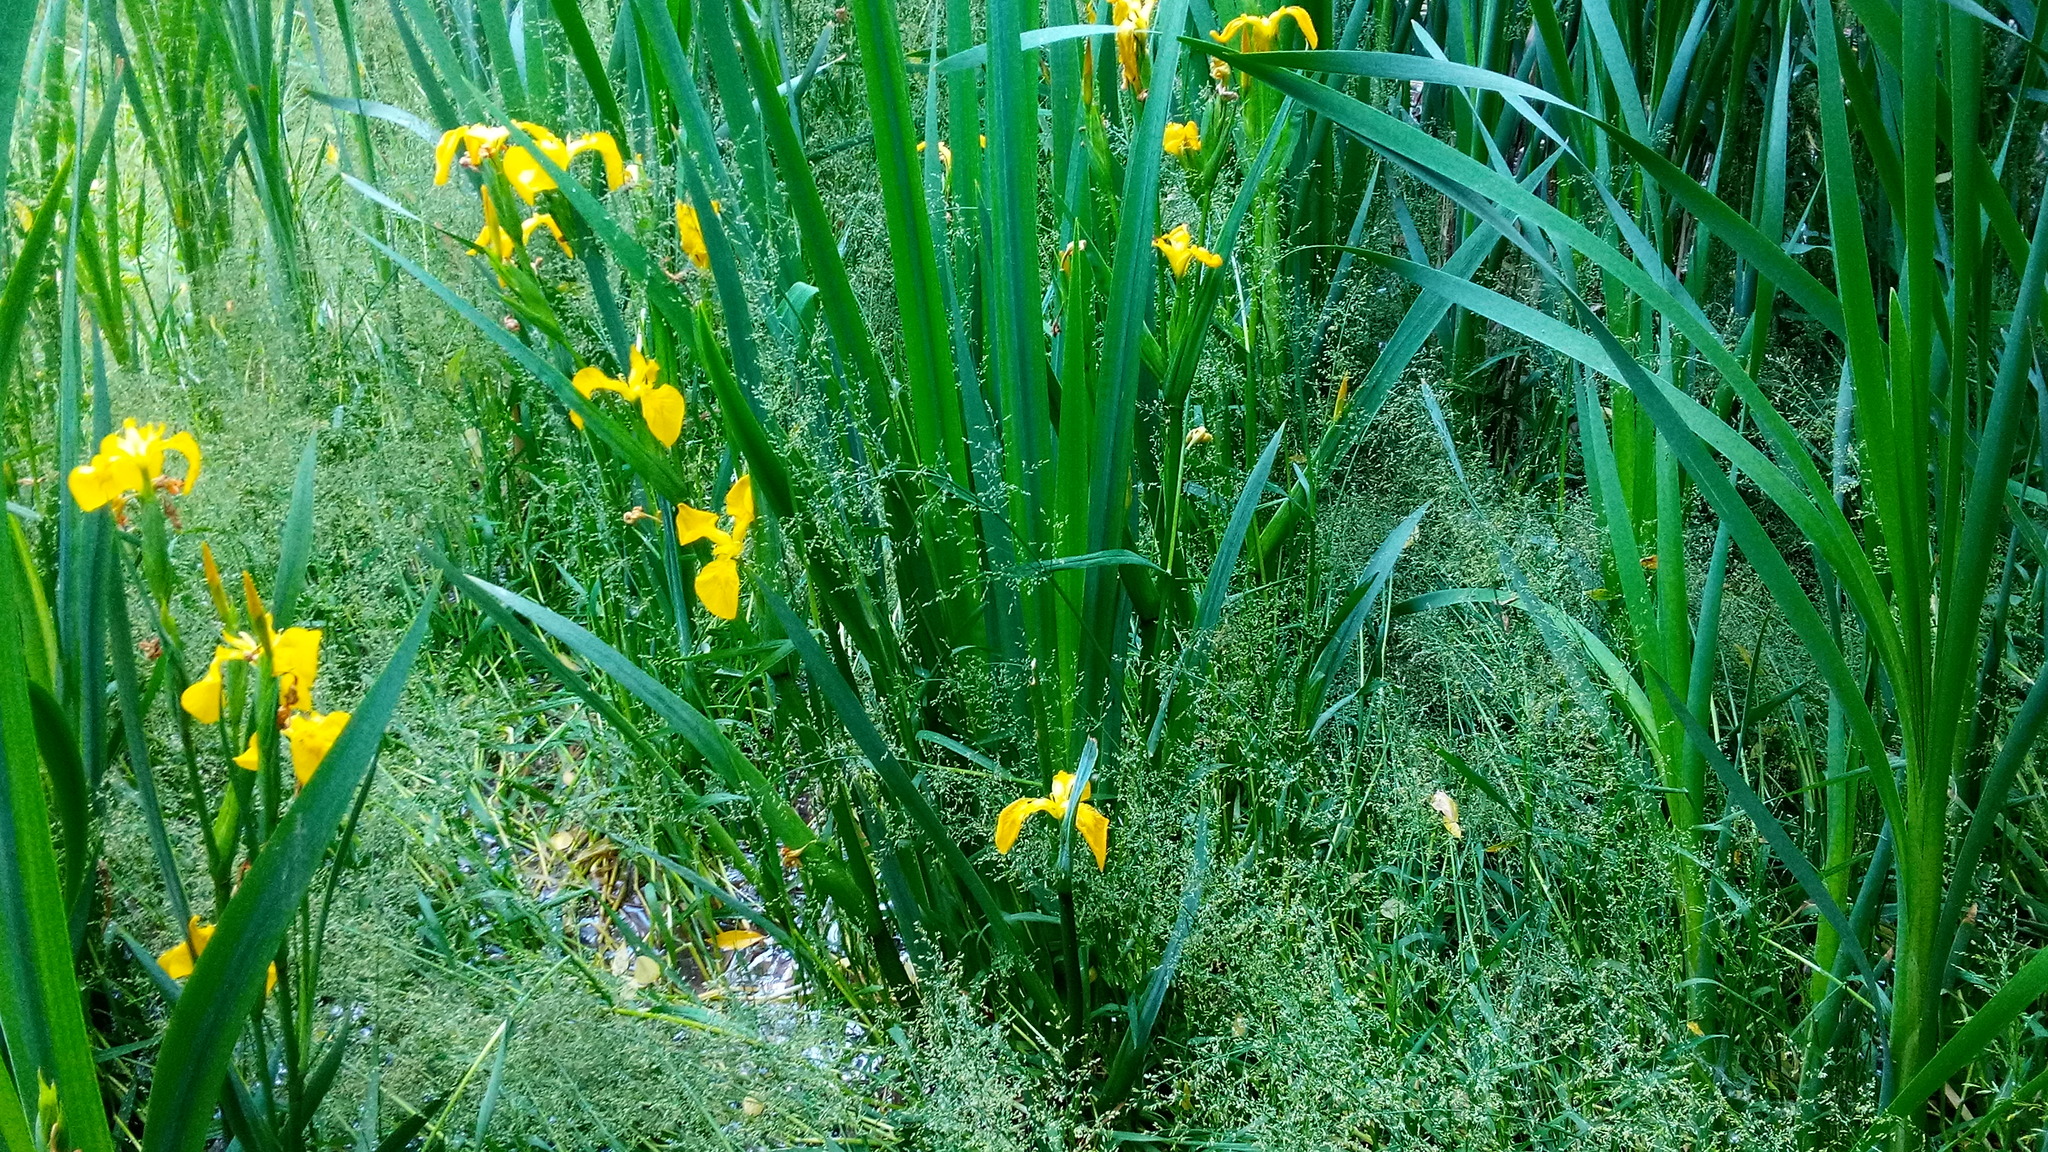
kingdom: Plantae
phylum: Tracheophyta
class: Liliopsida
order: Poales
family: Poaceae
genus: Catabrosa
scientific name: Catabrosa aquatica
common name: Whorl-grass
